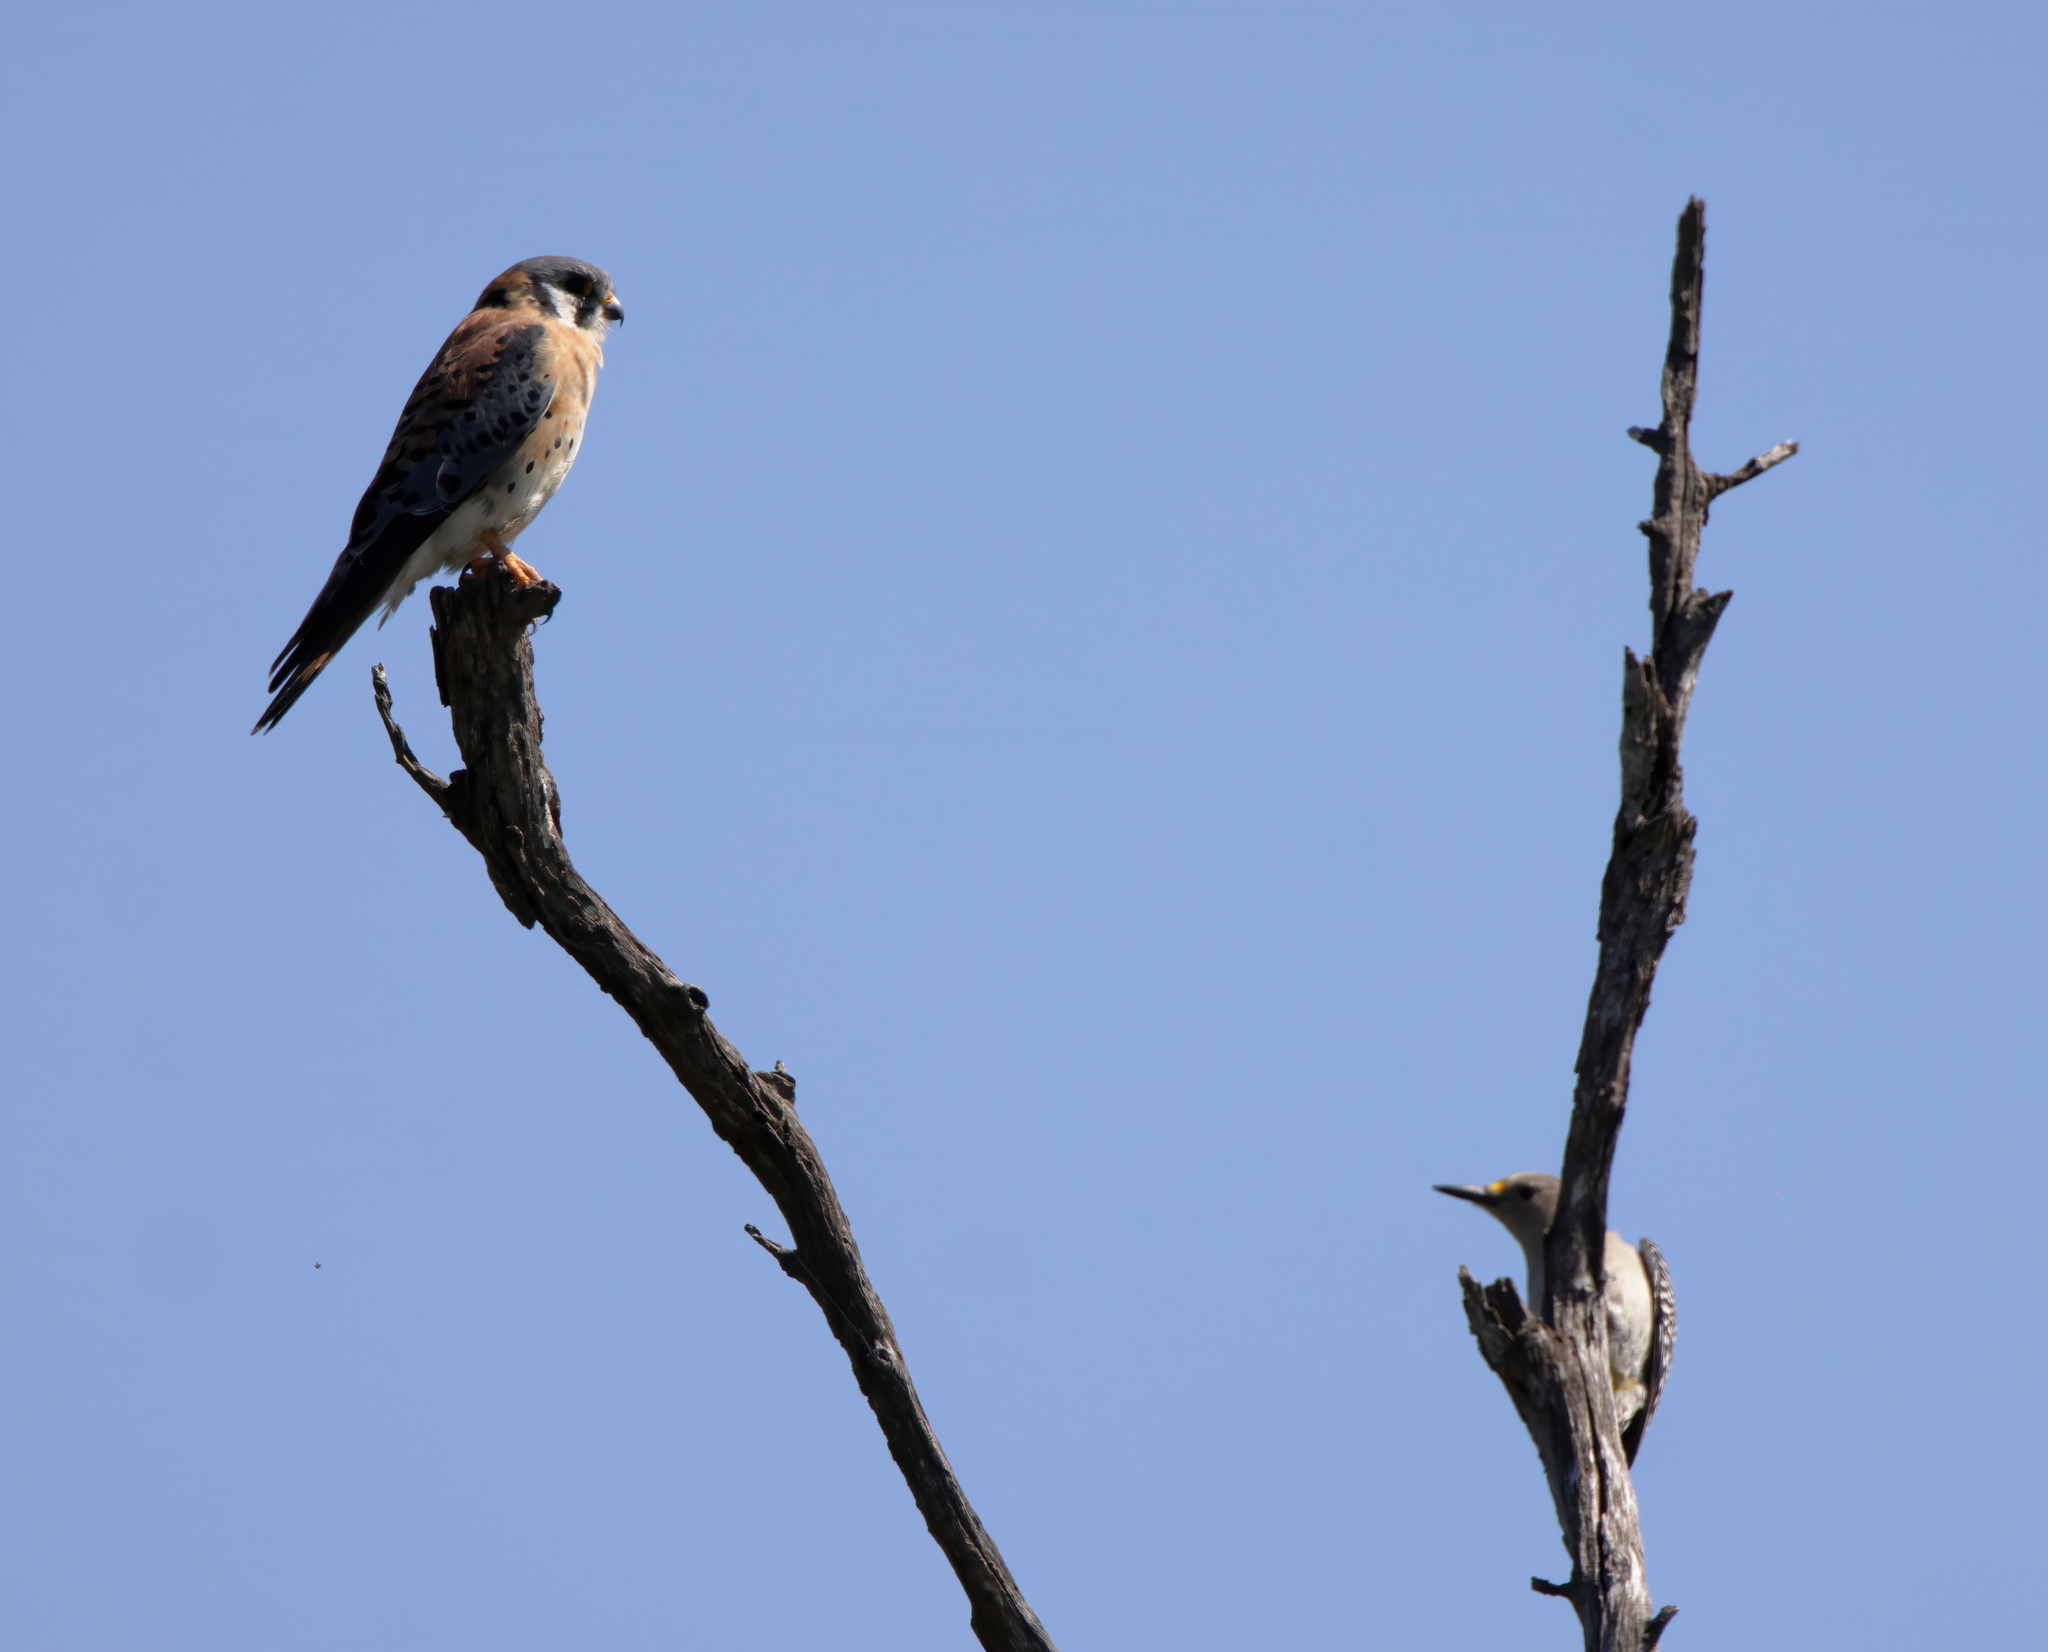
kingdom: Animalia
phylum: Chordata
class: Aves
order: Piciformes
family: Picidae
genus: Melanerpes
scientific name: Melanerpes aurifrons
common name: Golden-fronted woodpecker
